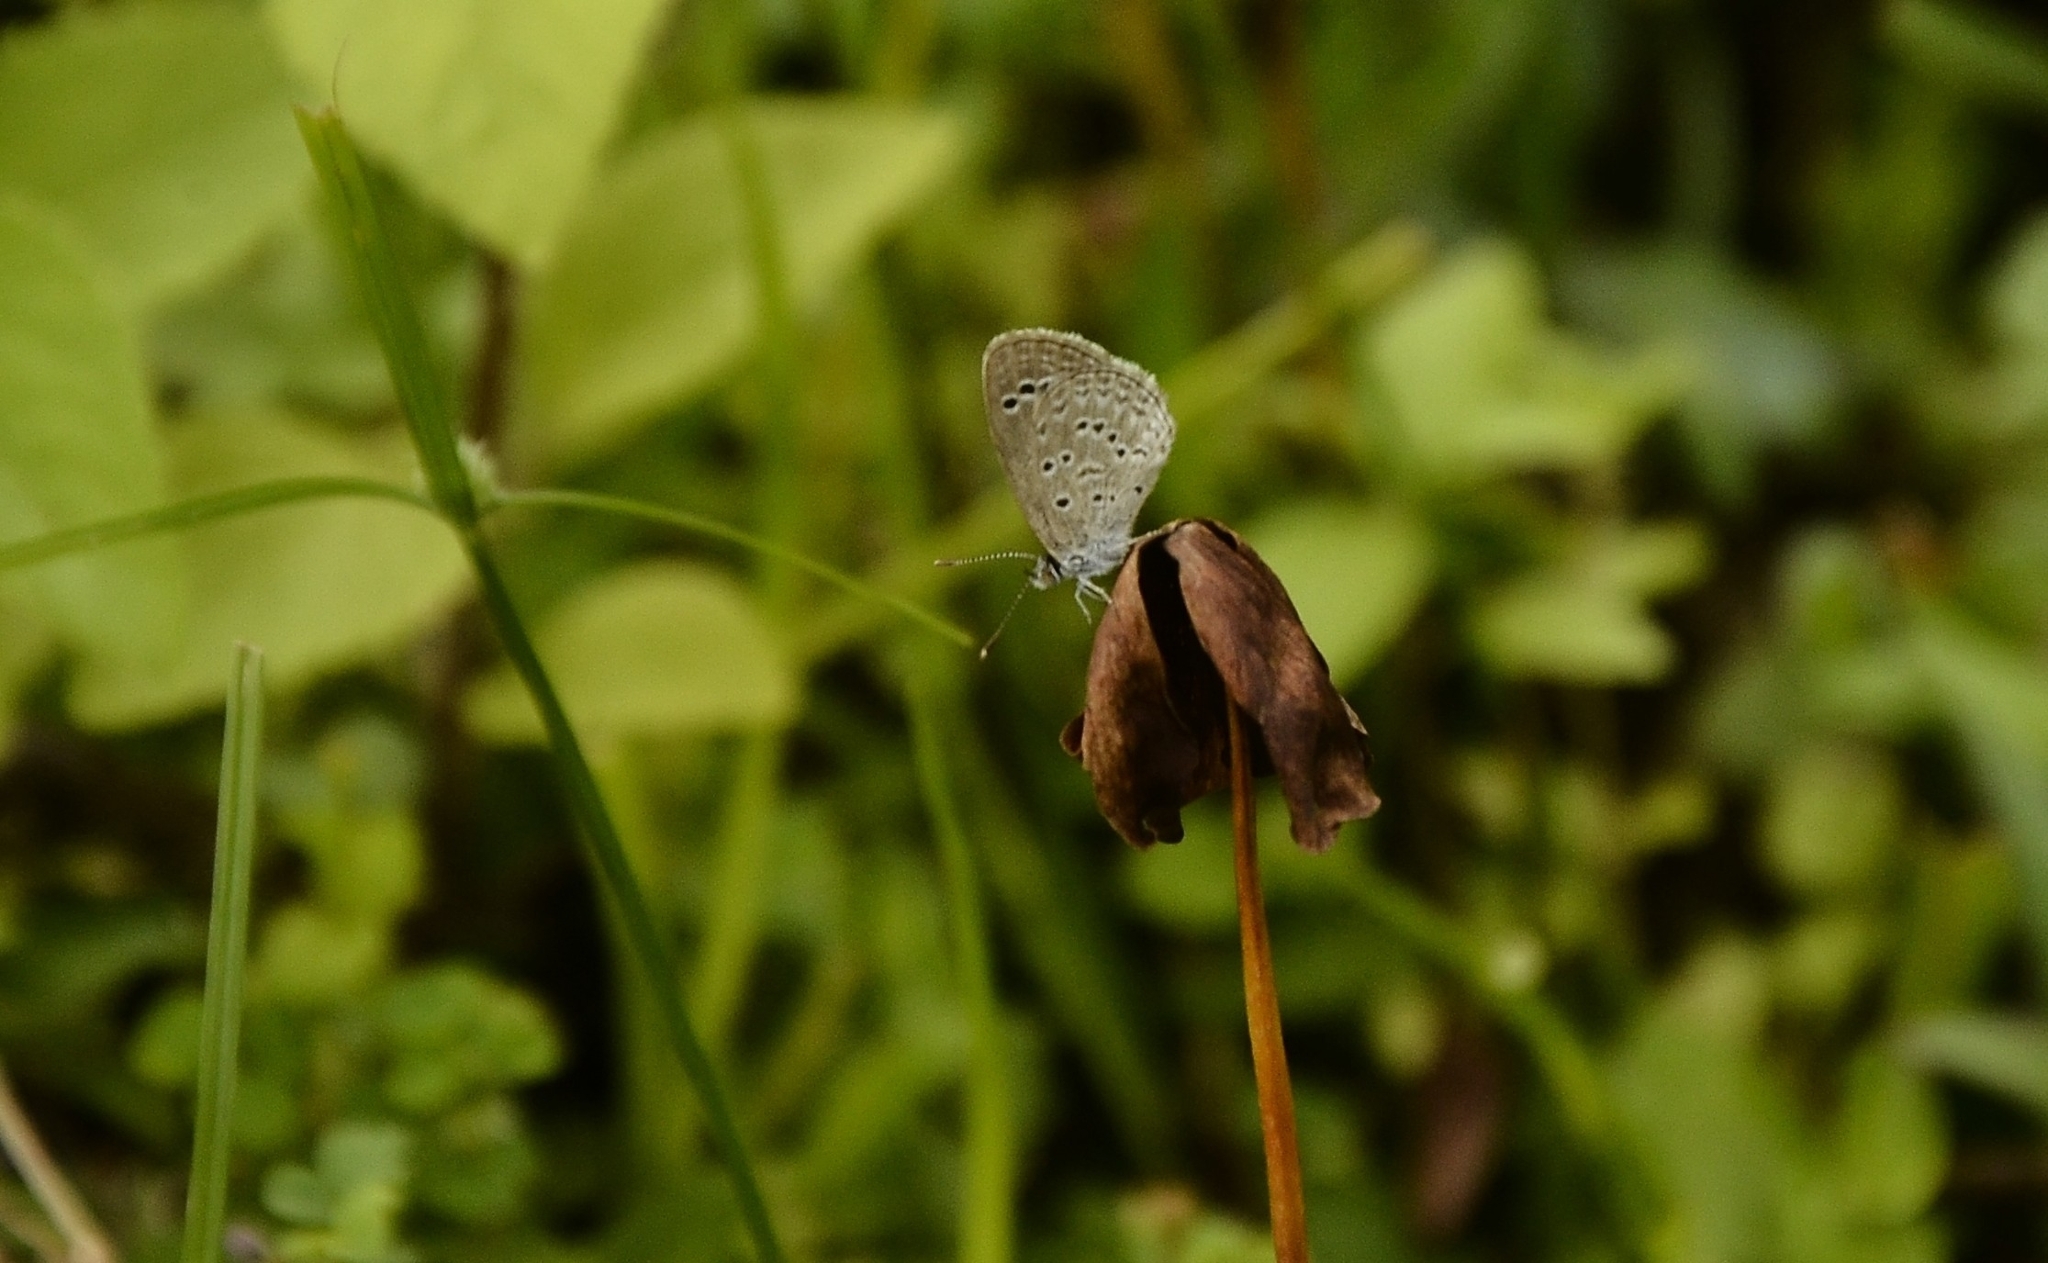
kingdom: Animalia
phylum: Arthropoda
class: Insecta
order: Lepidoptera
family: Lycaenidae
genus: Zizina
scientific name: Zizina otis
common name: Lesser grass blue
